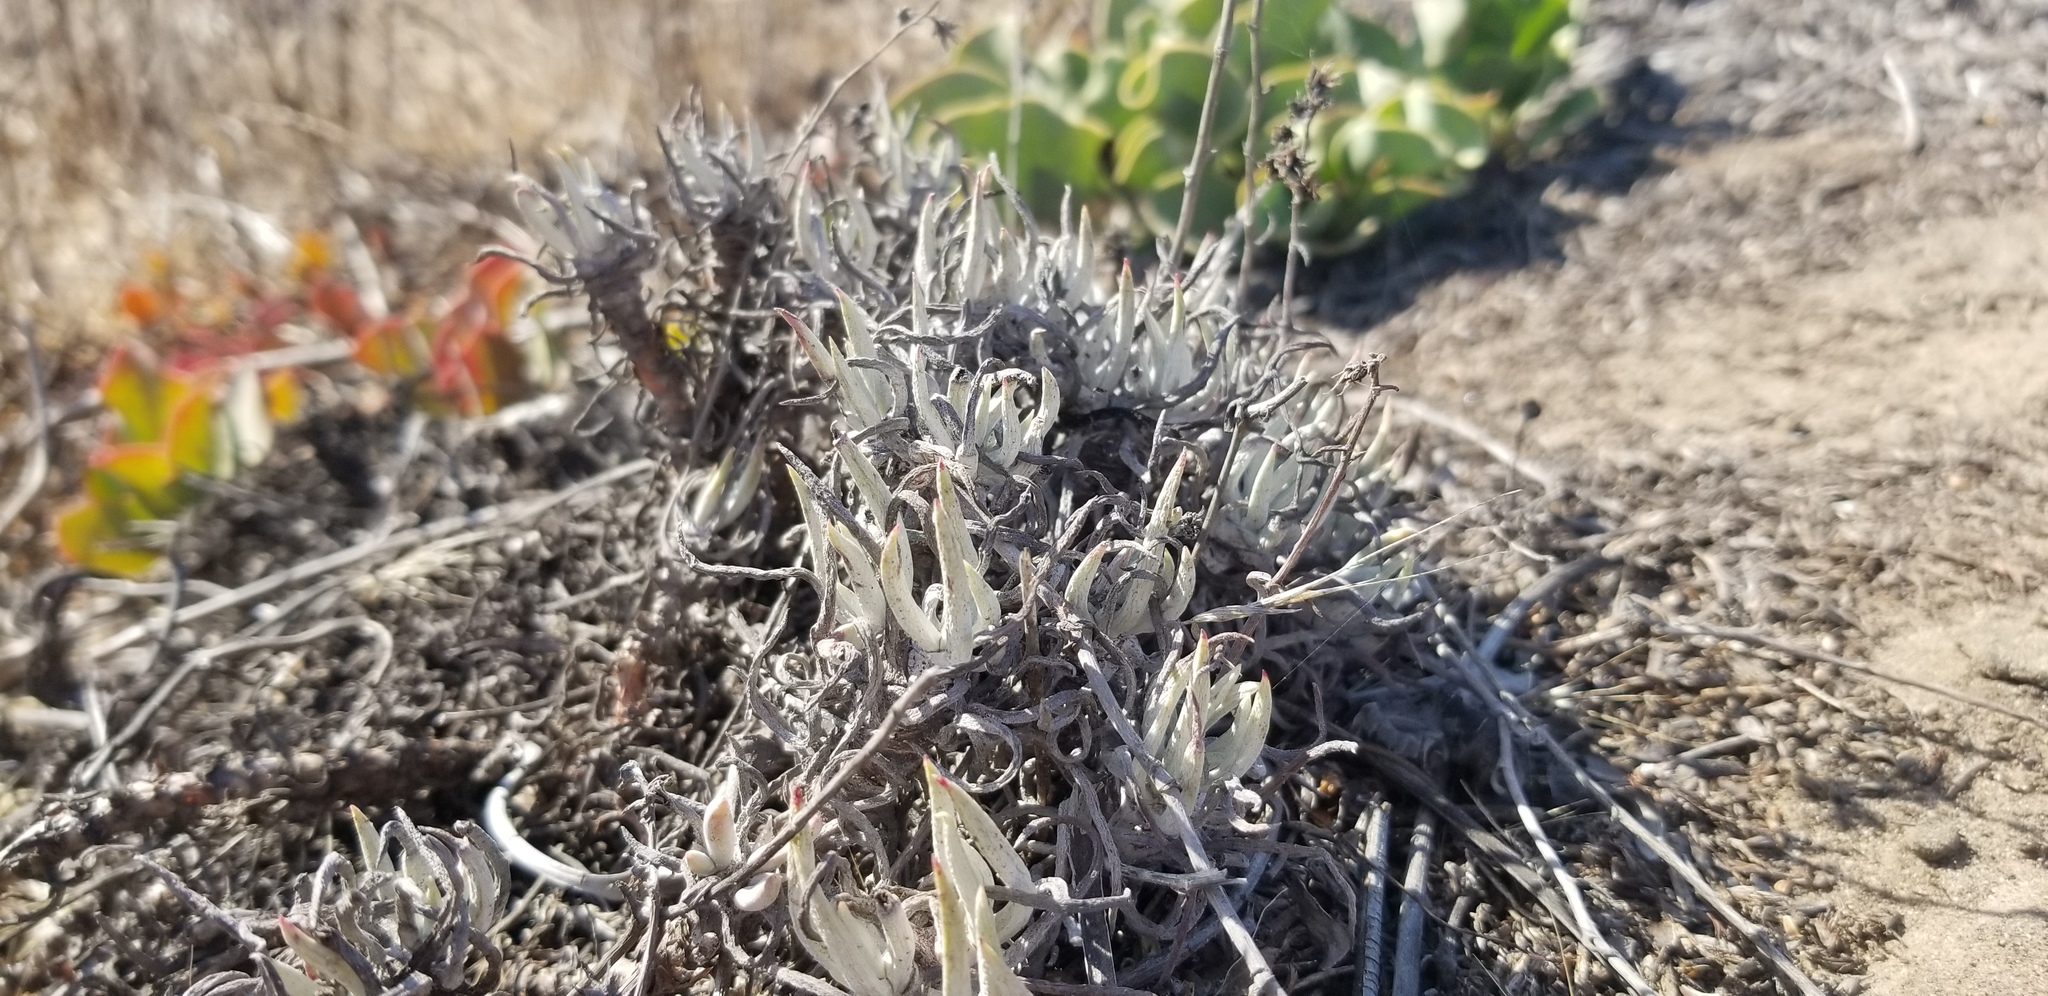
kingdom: Plantae
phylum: Tracheophyta
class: Magnoliopsida
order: Saxifragales
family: Crassulaceae
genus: Dudleya
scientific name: Dudleya attenuata
